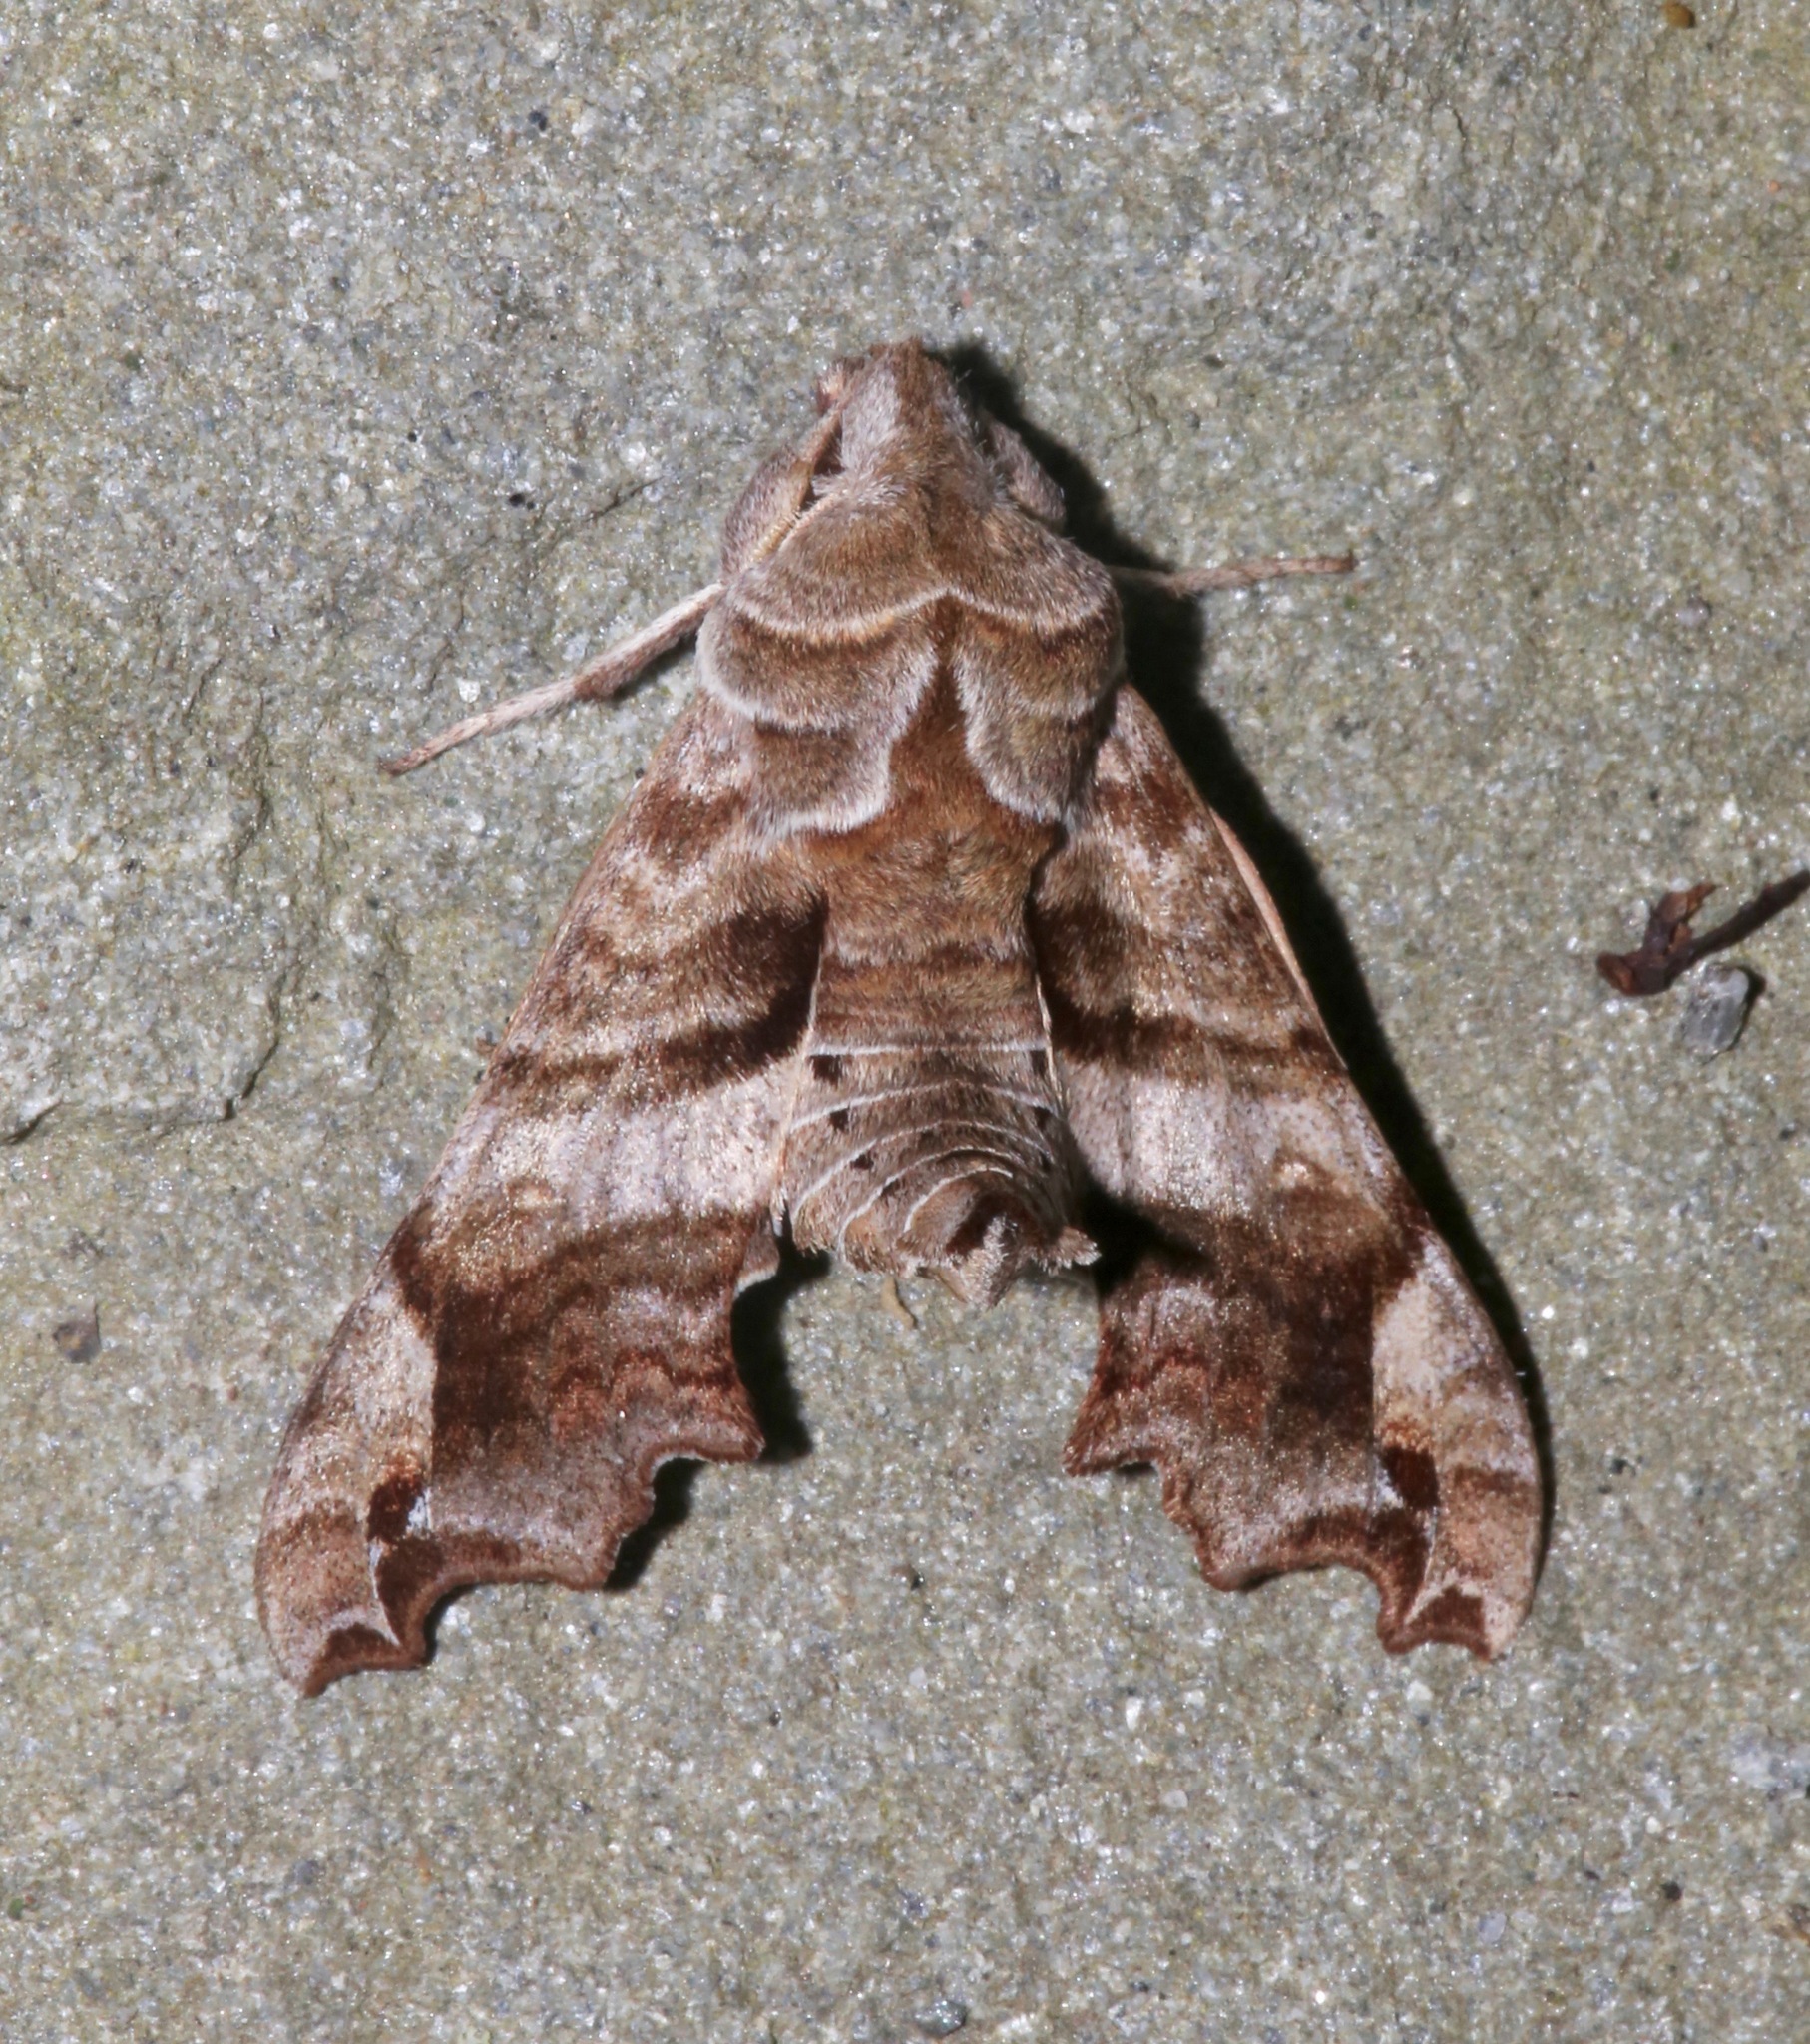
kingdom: Animalia
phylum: Arthropoda
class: Insecta
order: Lepidoptera
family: Sphingidae
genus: Deidamia
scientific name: Deidamia inscriptum
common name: Lettered sphinx
